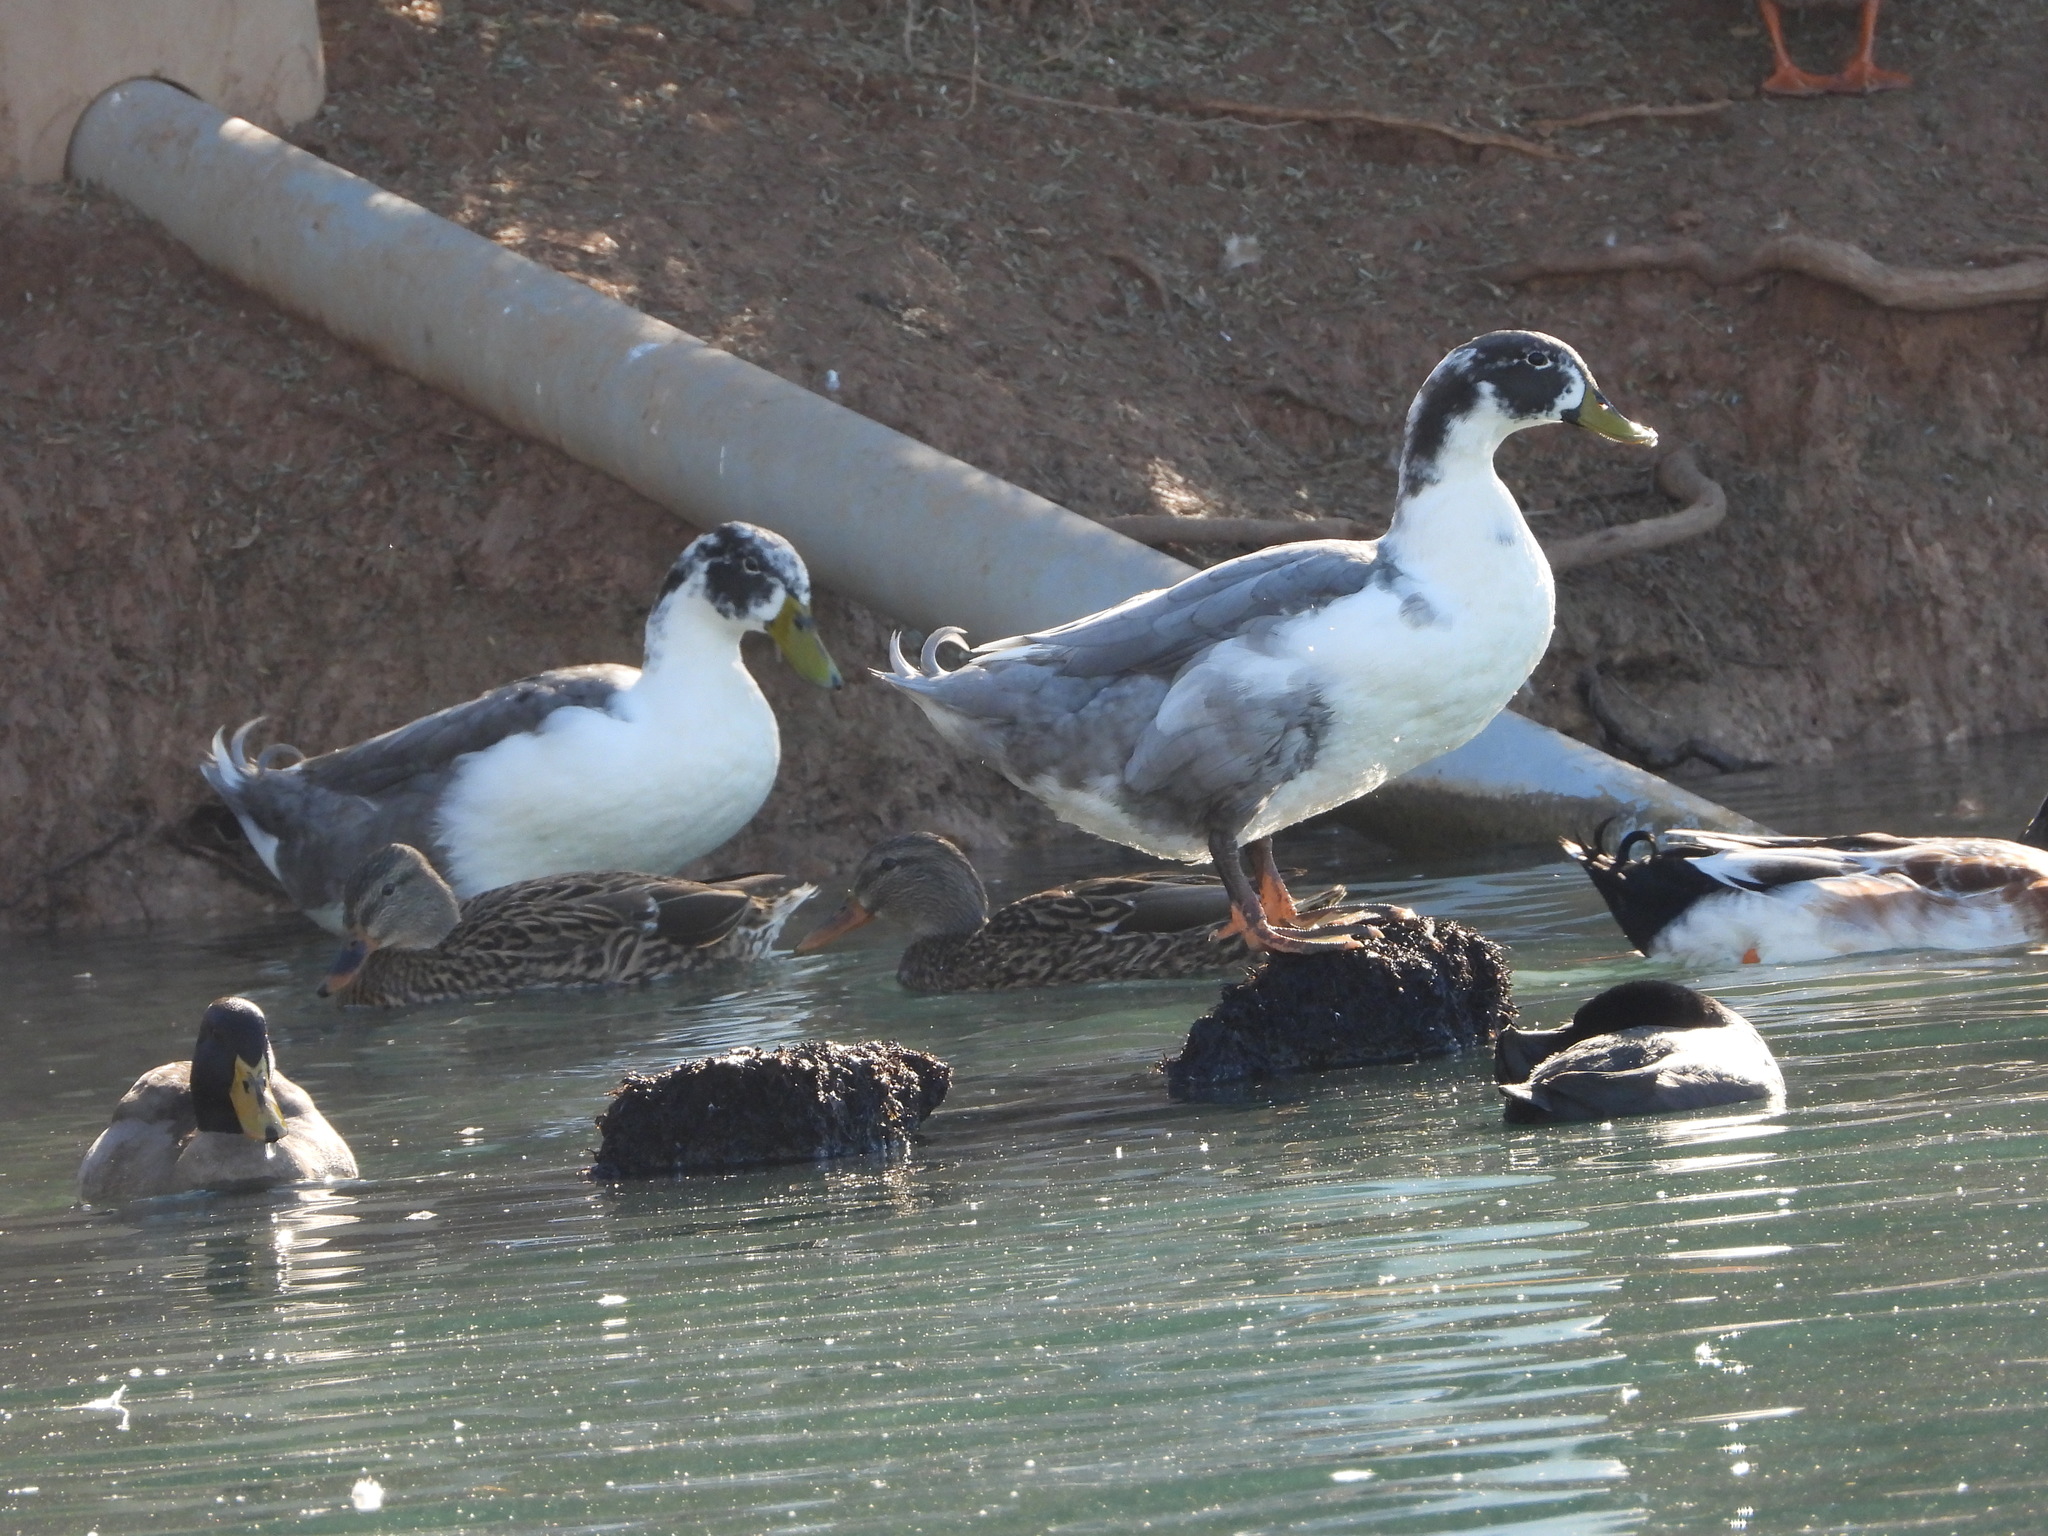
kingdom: Animalia
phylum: Chordata
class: Aves
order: Anseriformes
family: Anatidae
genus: Anas
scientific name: Anas platyrhynchos
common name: Mallard
